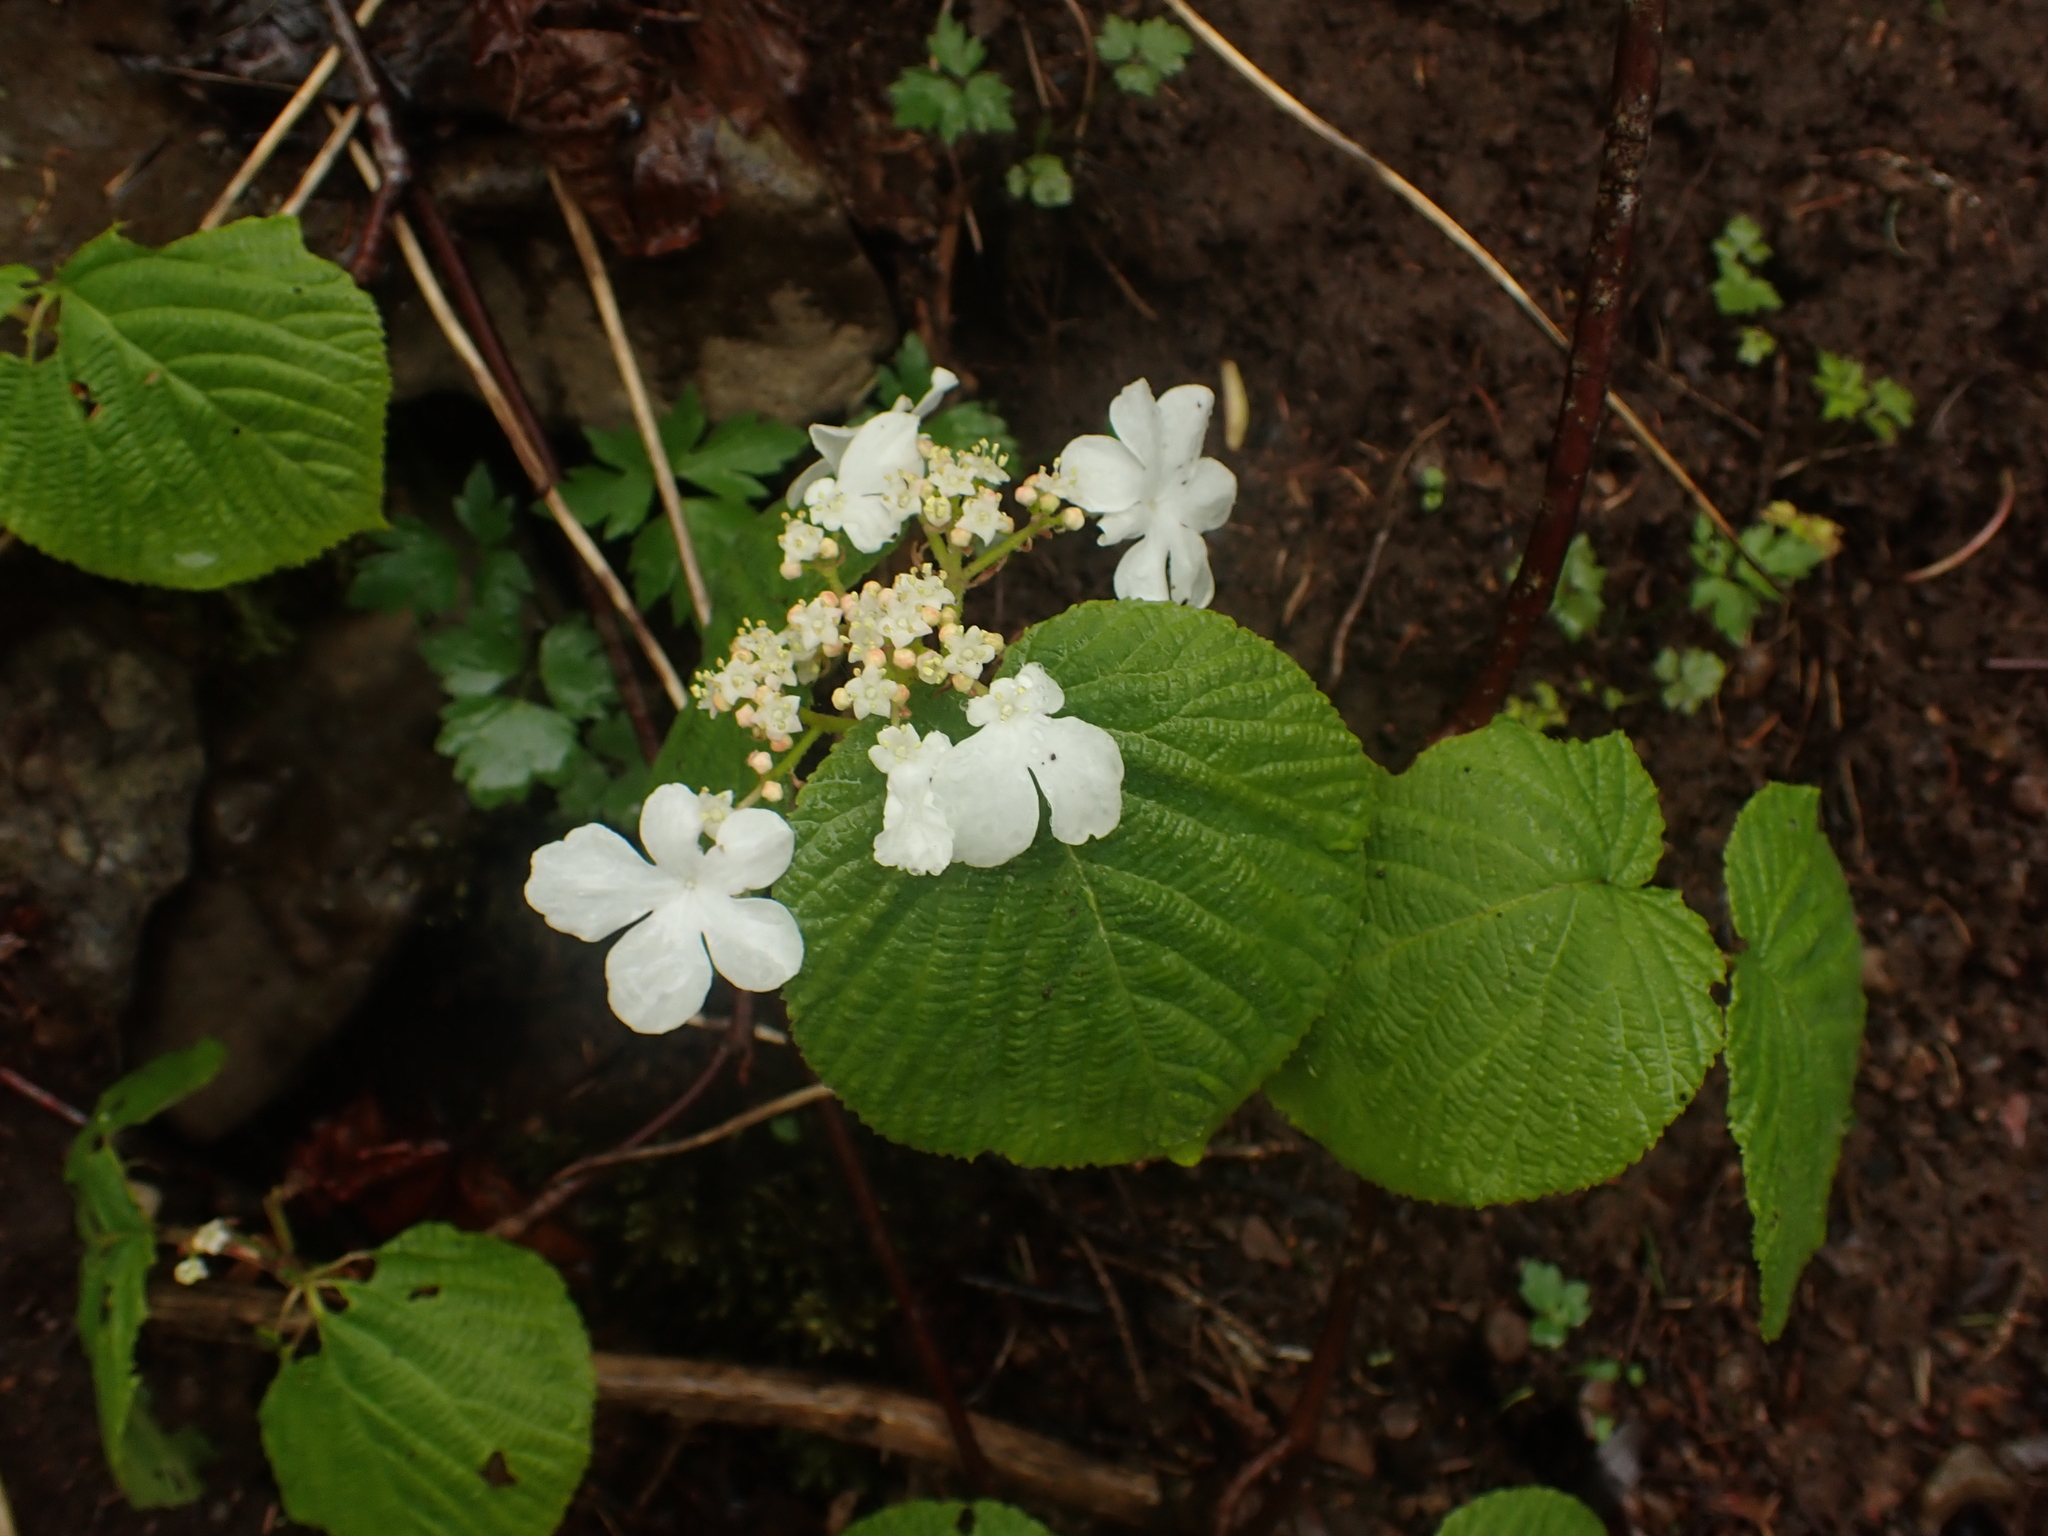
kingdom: Plantae
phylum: Tracheophyta
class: Magnoliopsida
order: Dipsacales
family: Viburnaceae
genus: Viburnum
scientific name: Viburnum lantanoides
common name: Hobblebush
